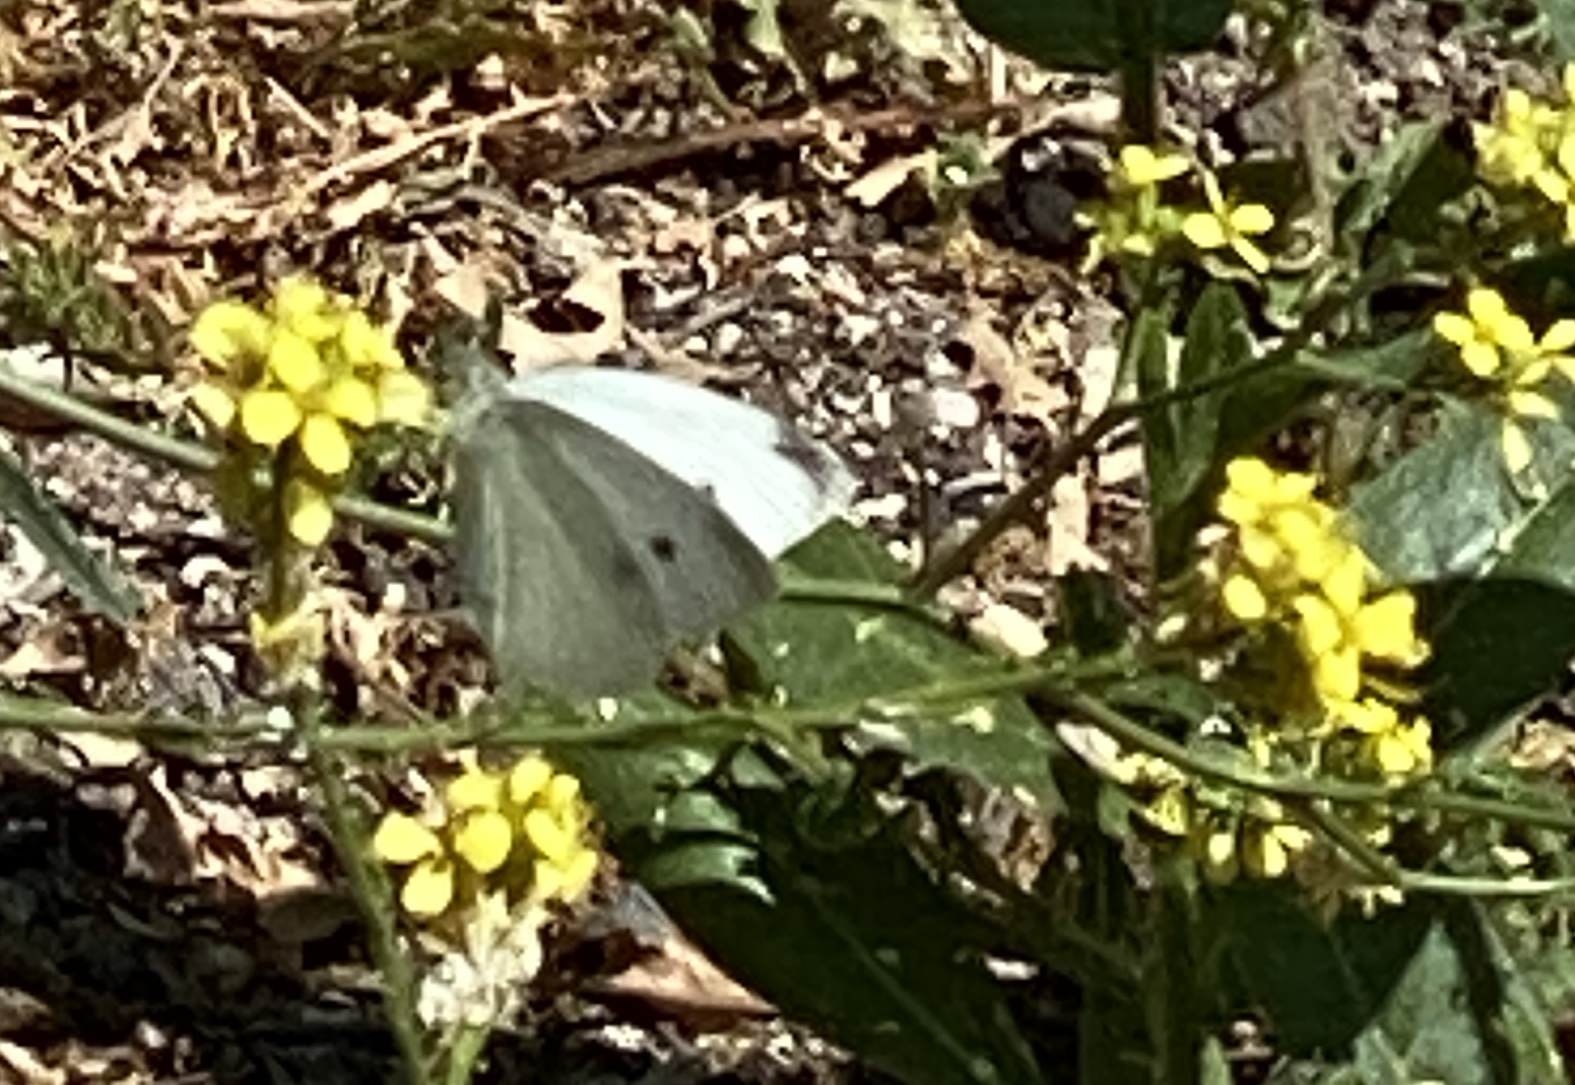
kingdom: Animalia
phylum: Arthropoda
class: Insecta
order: Lepidoptera
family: Pieridae
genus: Pieris
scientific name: Pieris rapae
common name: Small white
